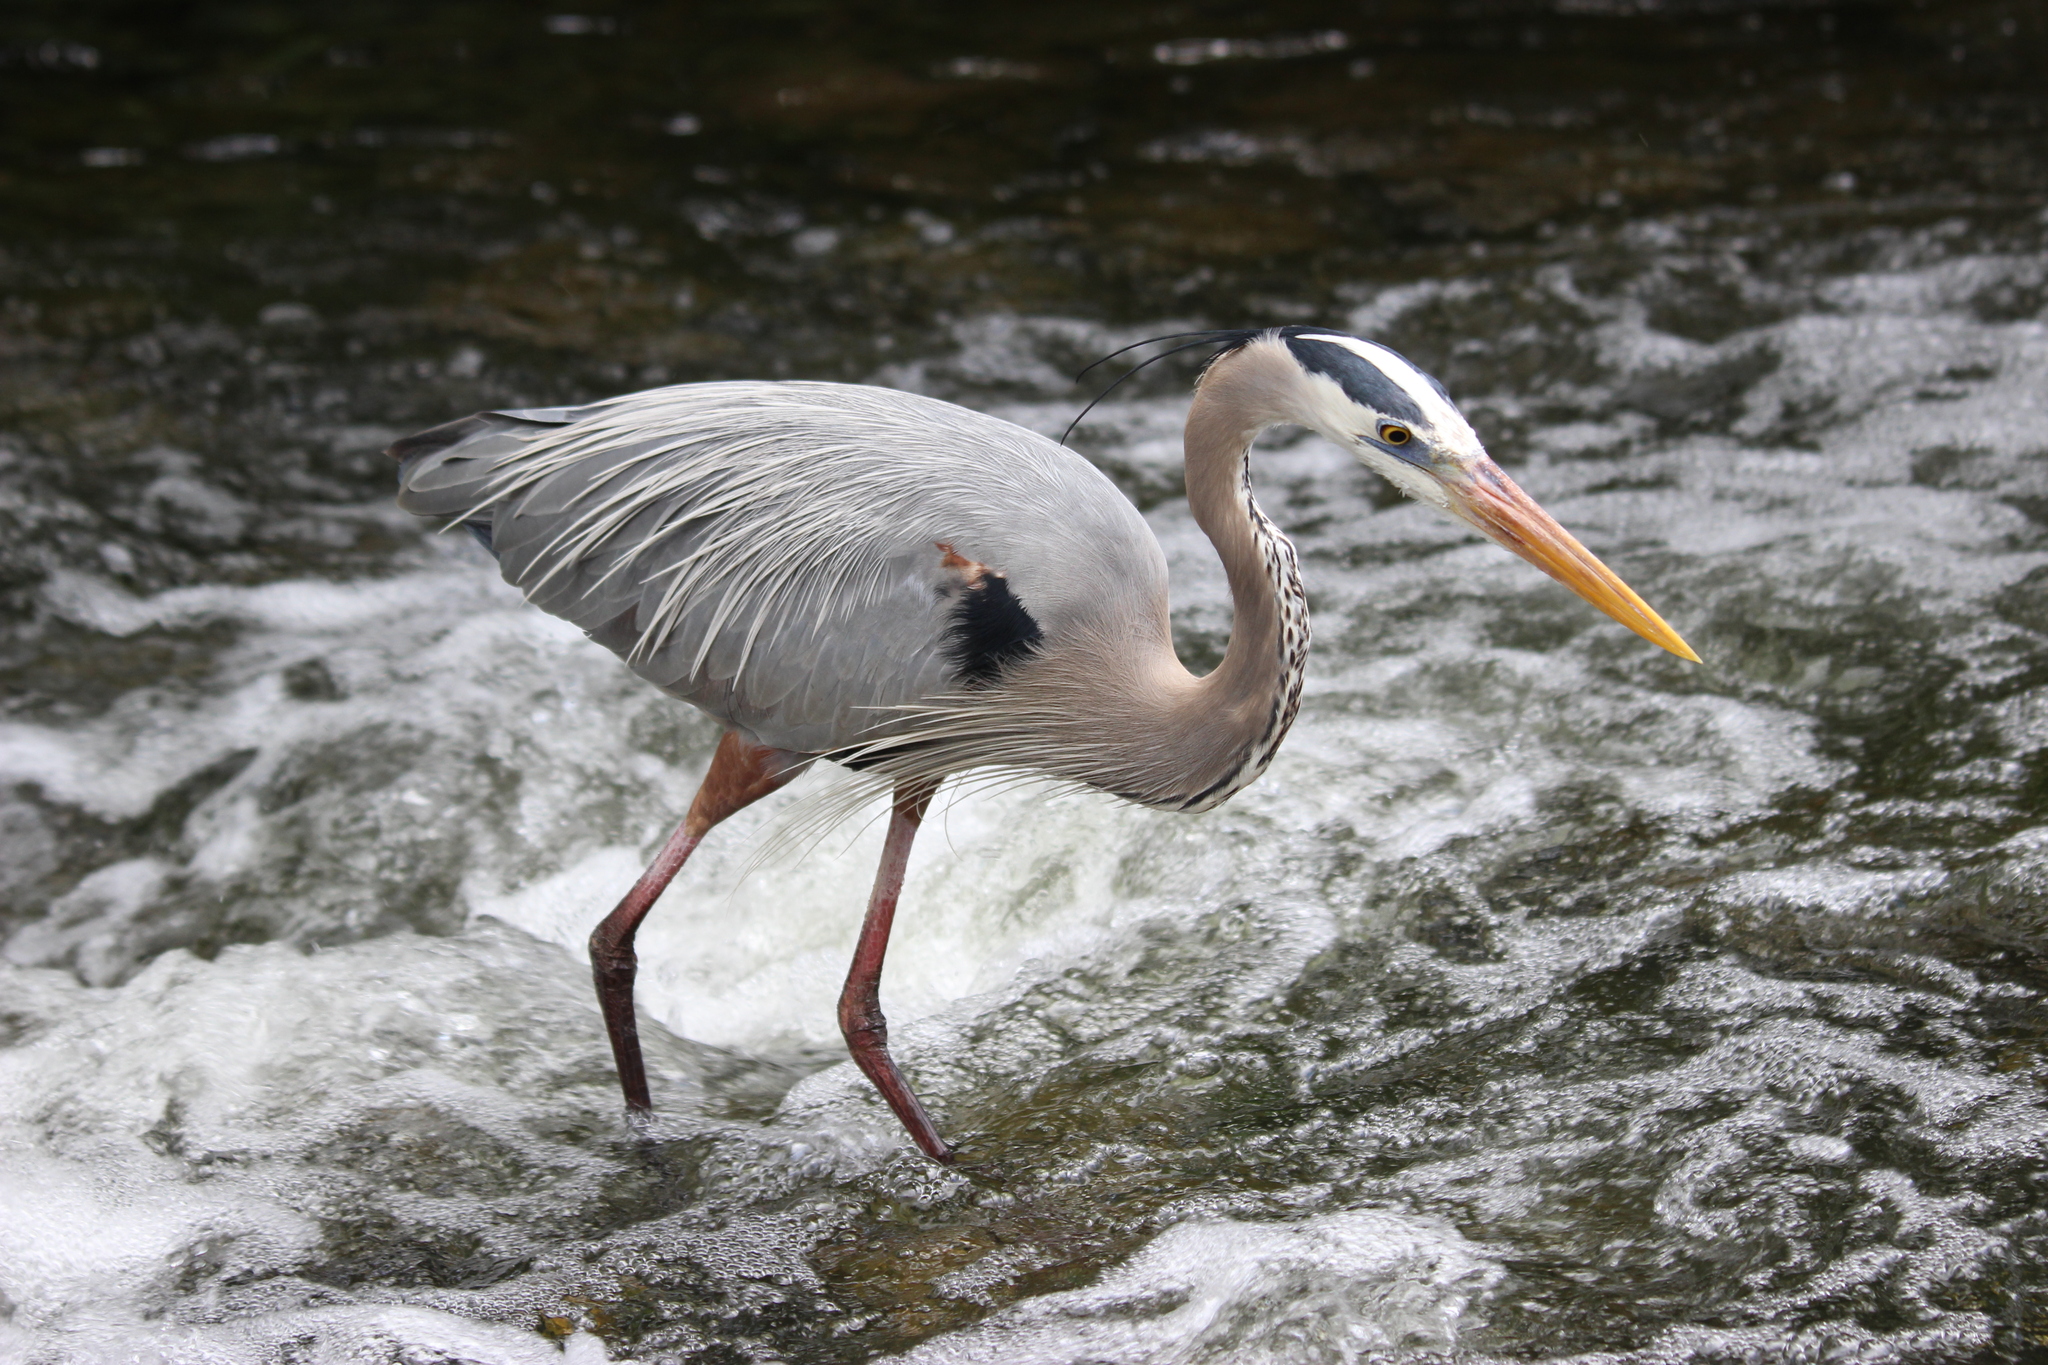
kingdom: Animalia
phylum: Chordata
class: Aves
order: Pelecaniformes
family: Ardeidae
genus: Ardea
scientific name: Ardea herodias
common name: Great blue heron
